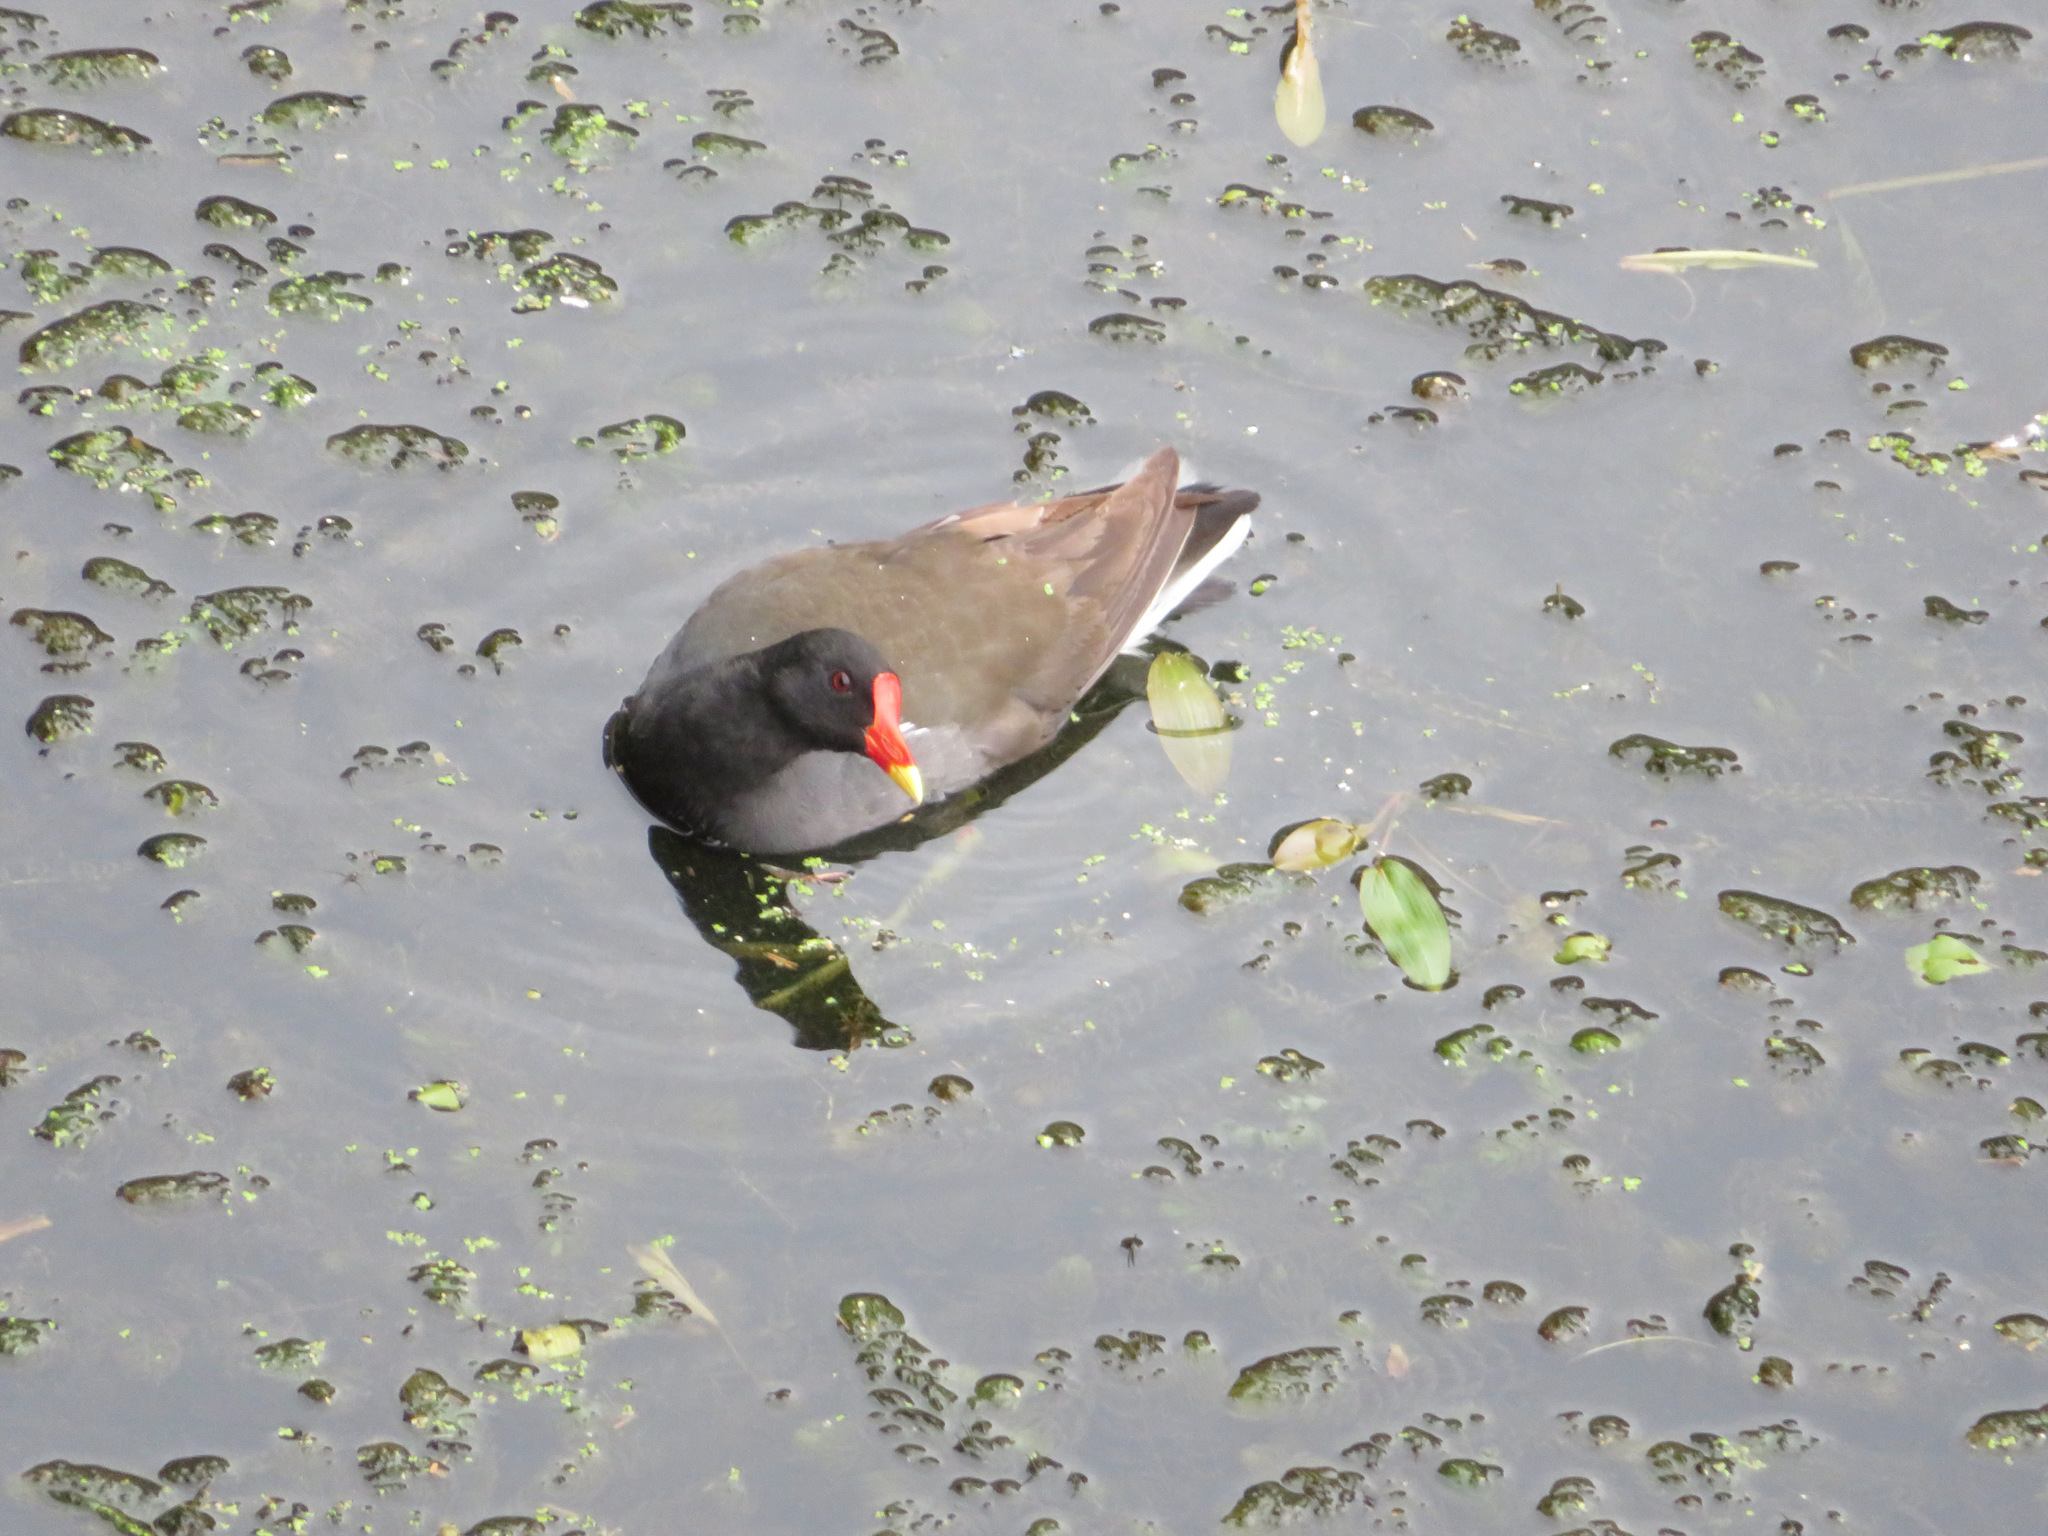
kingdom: Animalia
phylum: Chordata
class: Aves
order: Gruiformes
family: Rallidae
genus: Gallinula
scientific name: Gallinula chloropus
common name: Common moorhen
